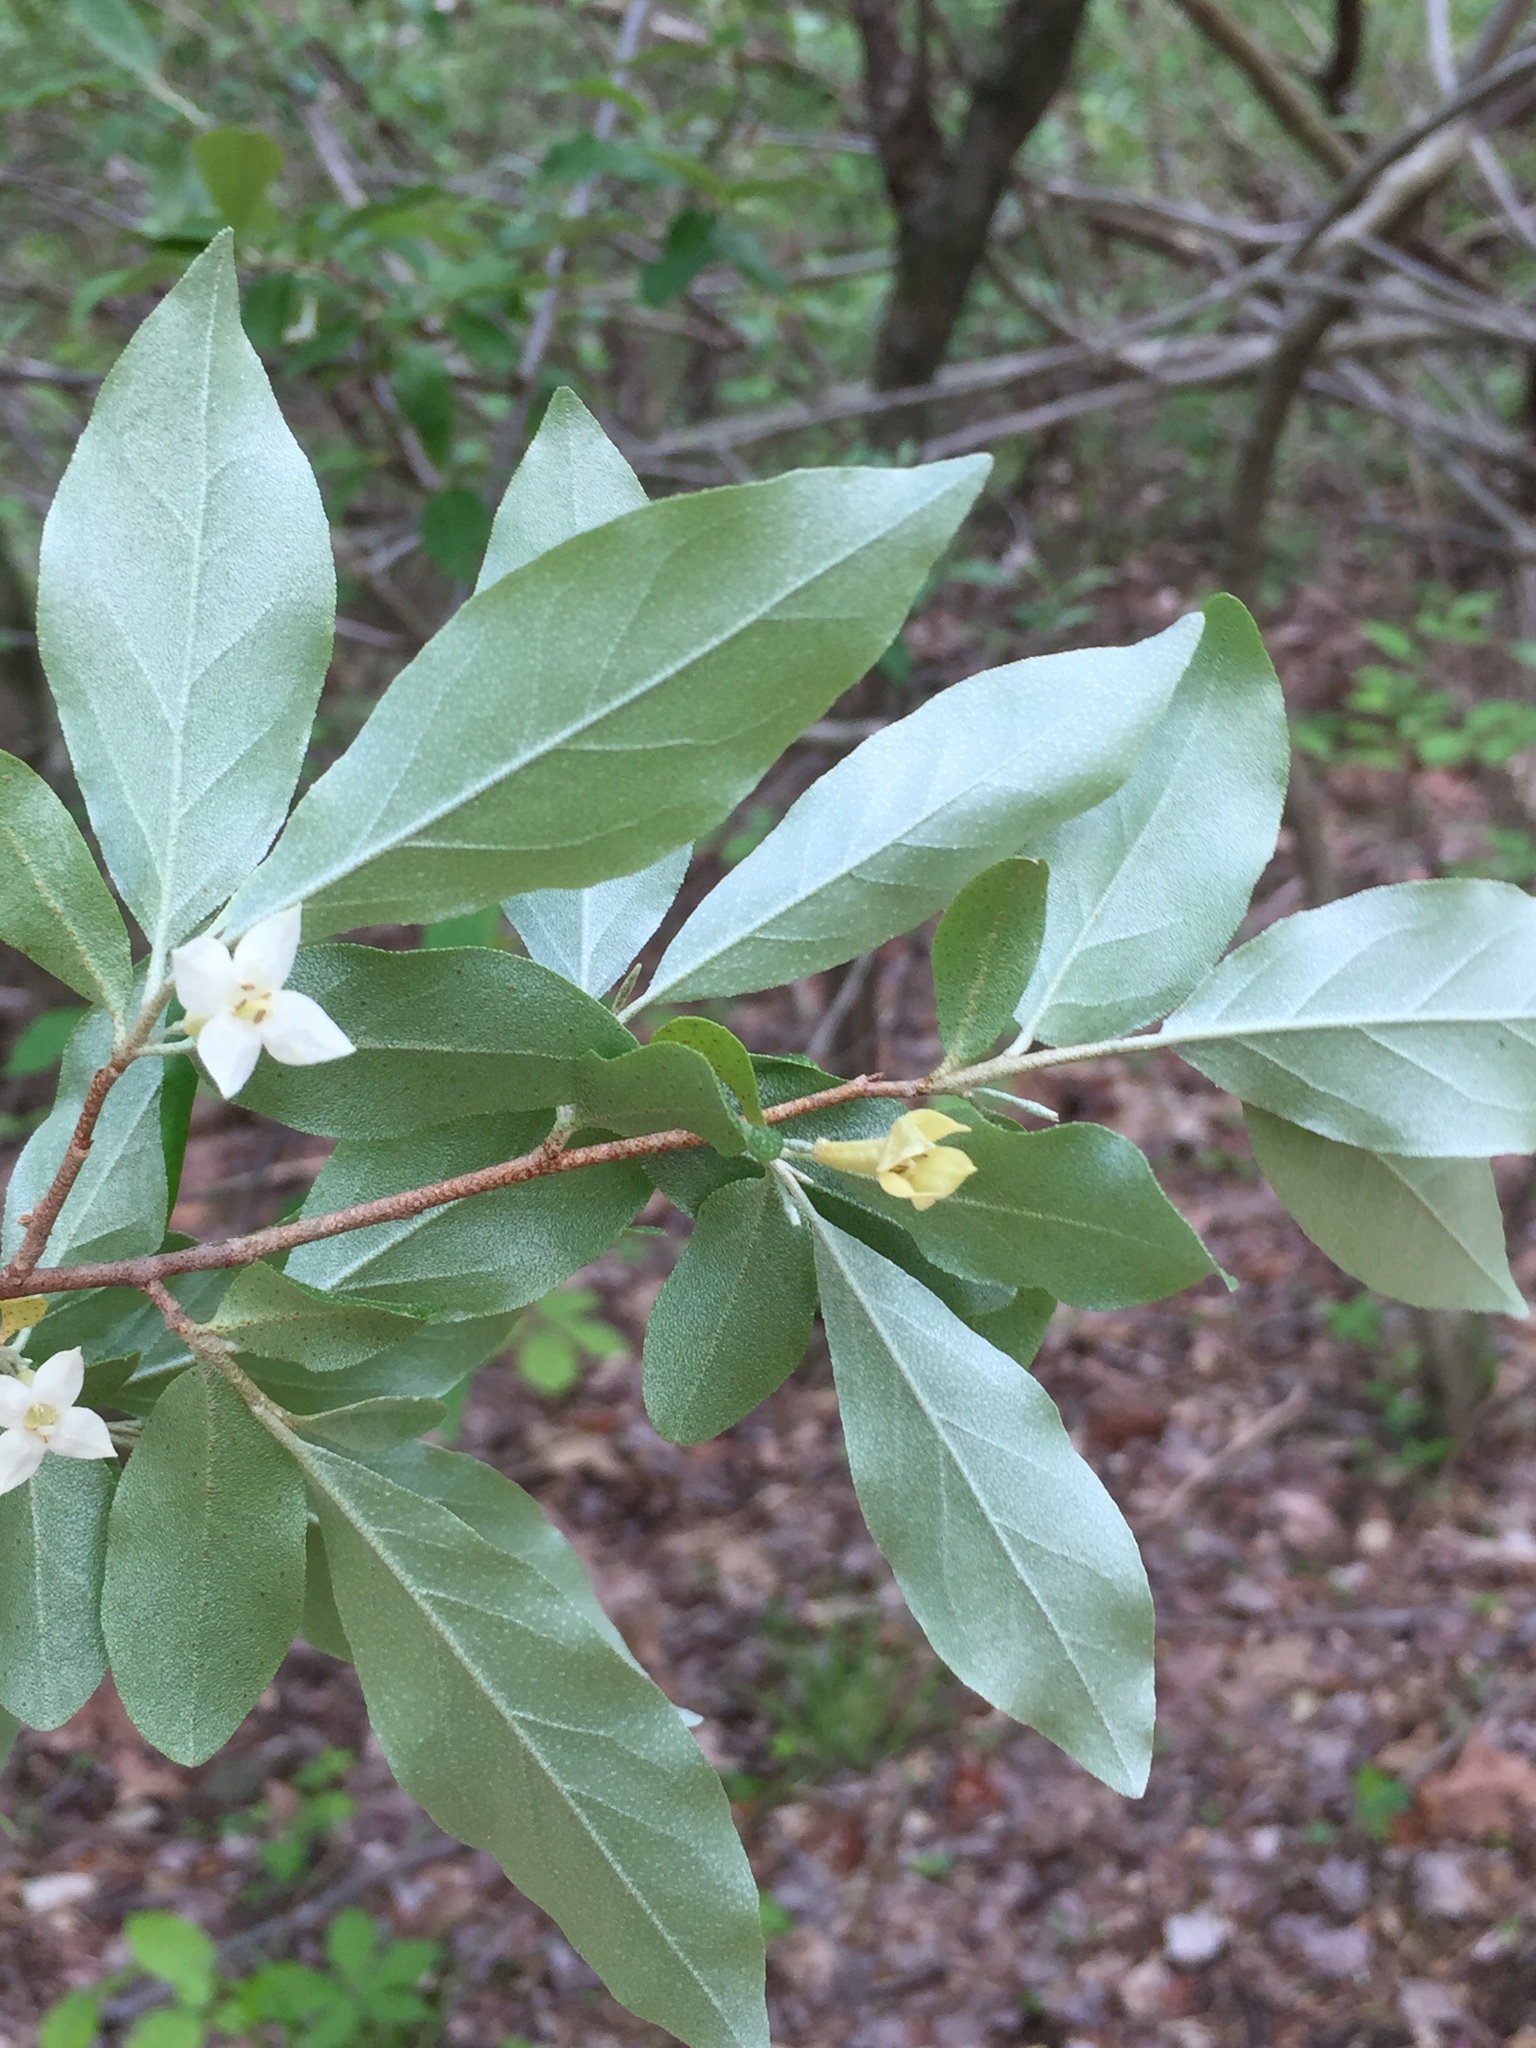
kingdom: Plantae
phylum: Tracheophyta
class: Magnoliopsida
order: Rosales
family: Elaeagnaceae
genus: Elaeagnus
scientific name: Elaeagnus umbellata
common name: Autumn olive
